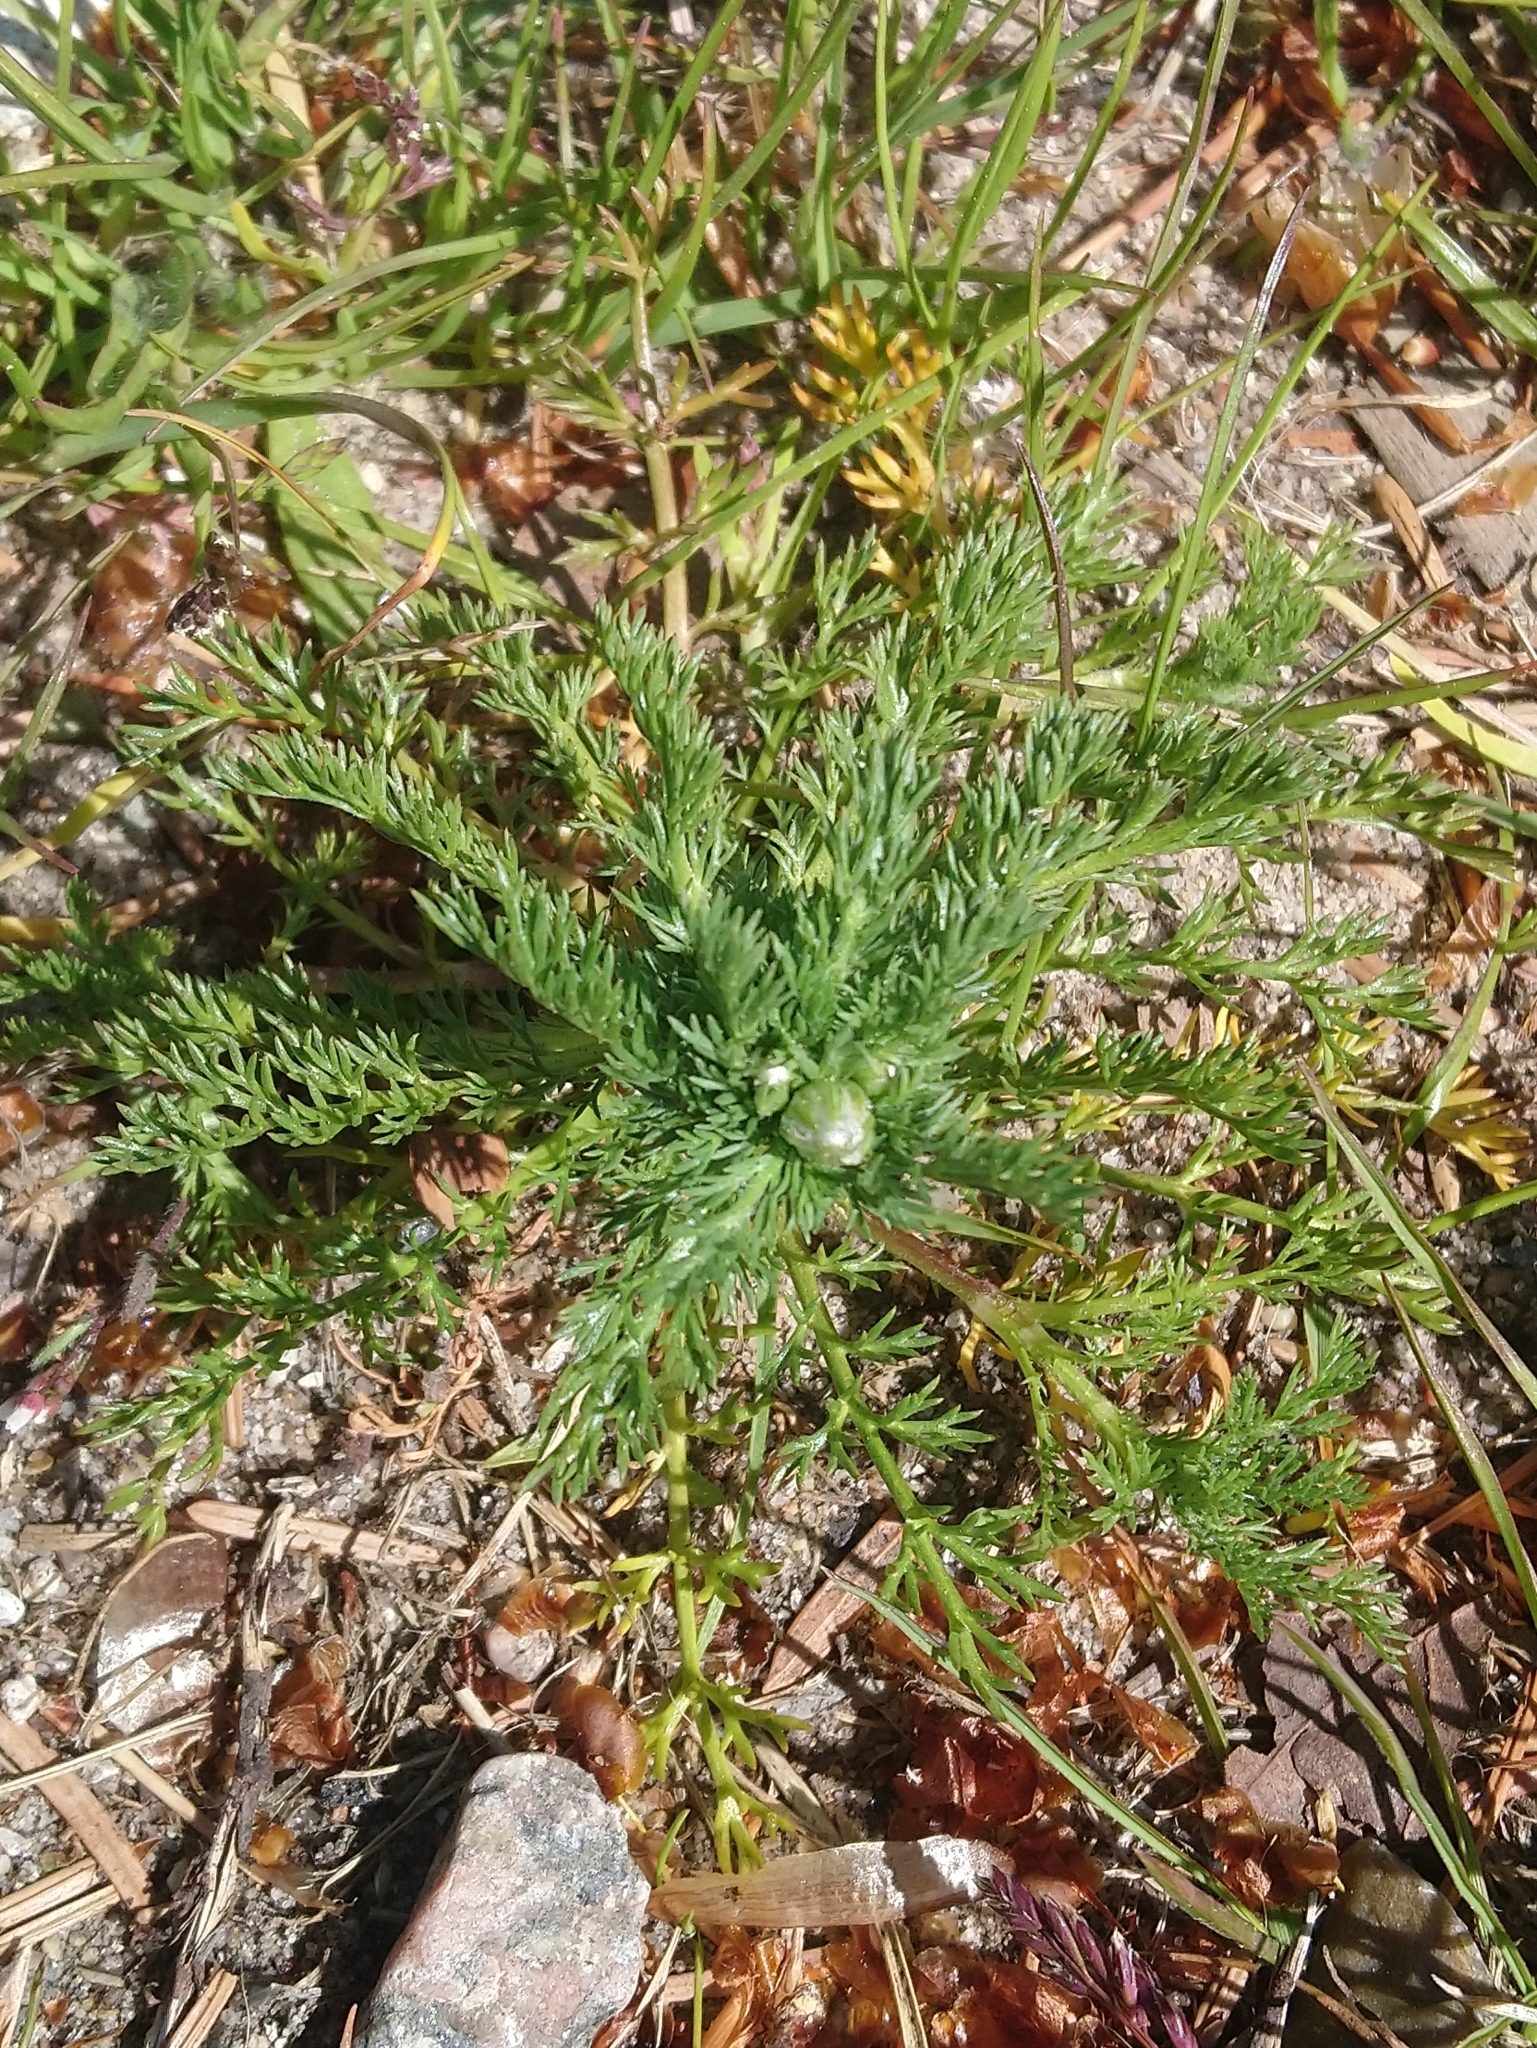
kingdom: Plantae
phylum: Tracheophyta
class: Magnoliopsida
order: Asterales
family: Asteraceae
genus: Matricaria
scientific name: Matricaria discoidea
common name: Disc mayweed
